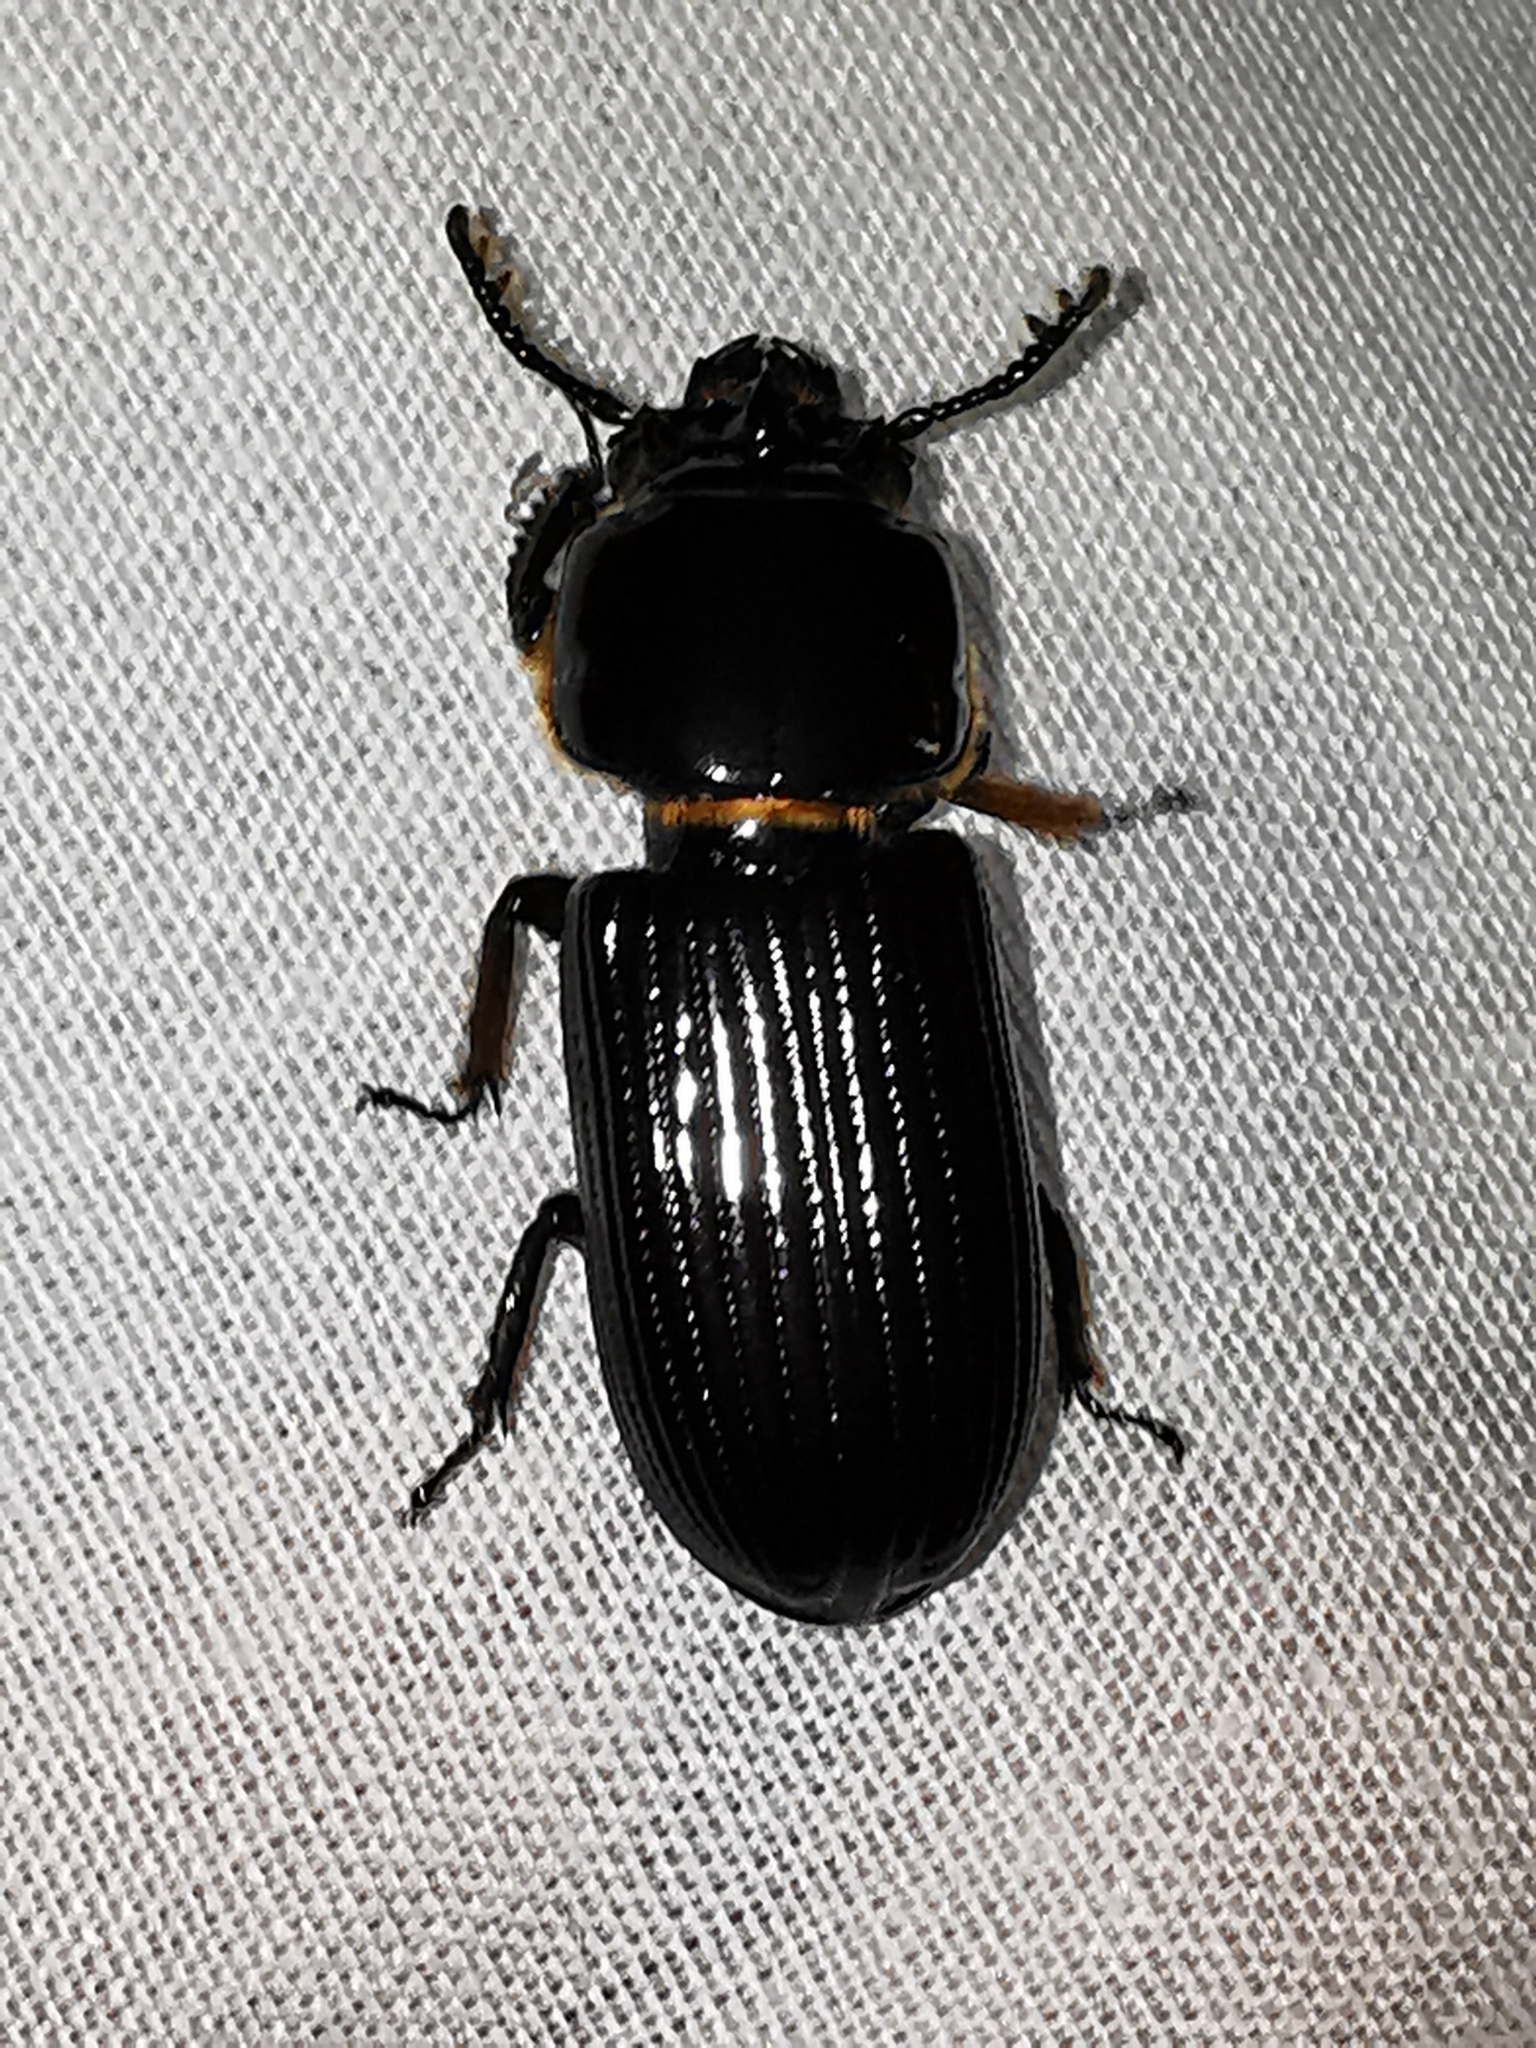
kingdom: Animalia
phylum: Arthropoda
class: Insecta
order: Coleoptera
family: Passalidae
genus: Odontotaenius
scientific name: Odontotaenius striatopunctatus
